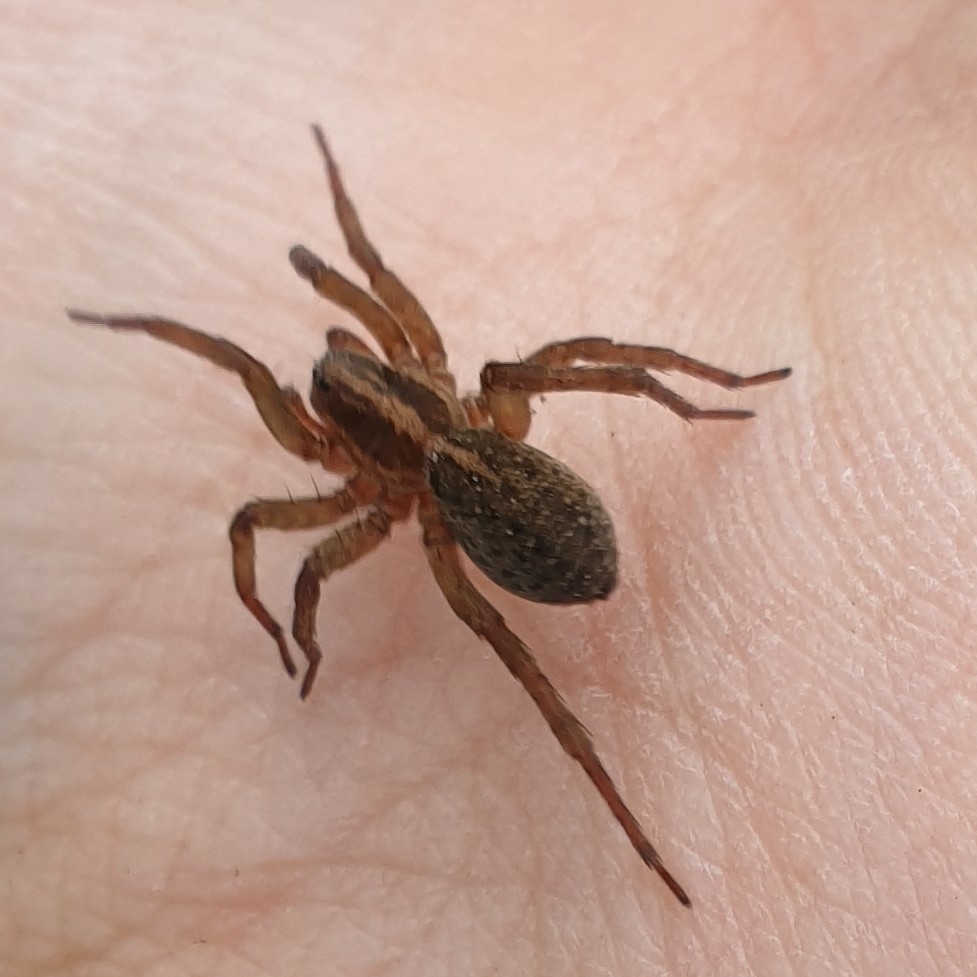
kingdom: Animalia
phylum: Arthropoda
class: Arachnida
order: Araneae
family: Lycosidae
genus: Trochosa
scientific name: Trochosa
